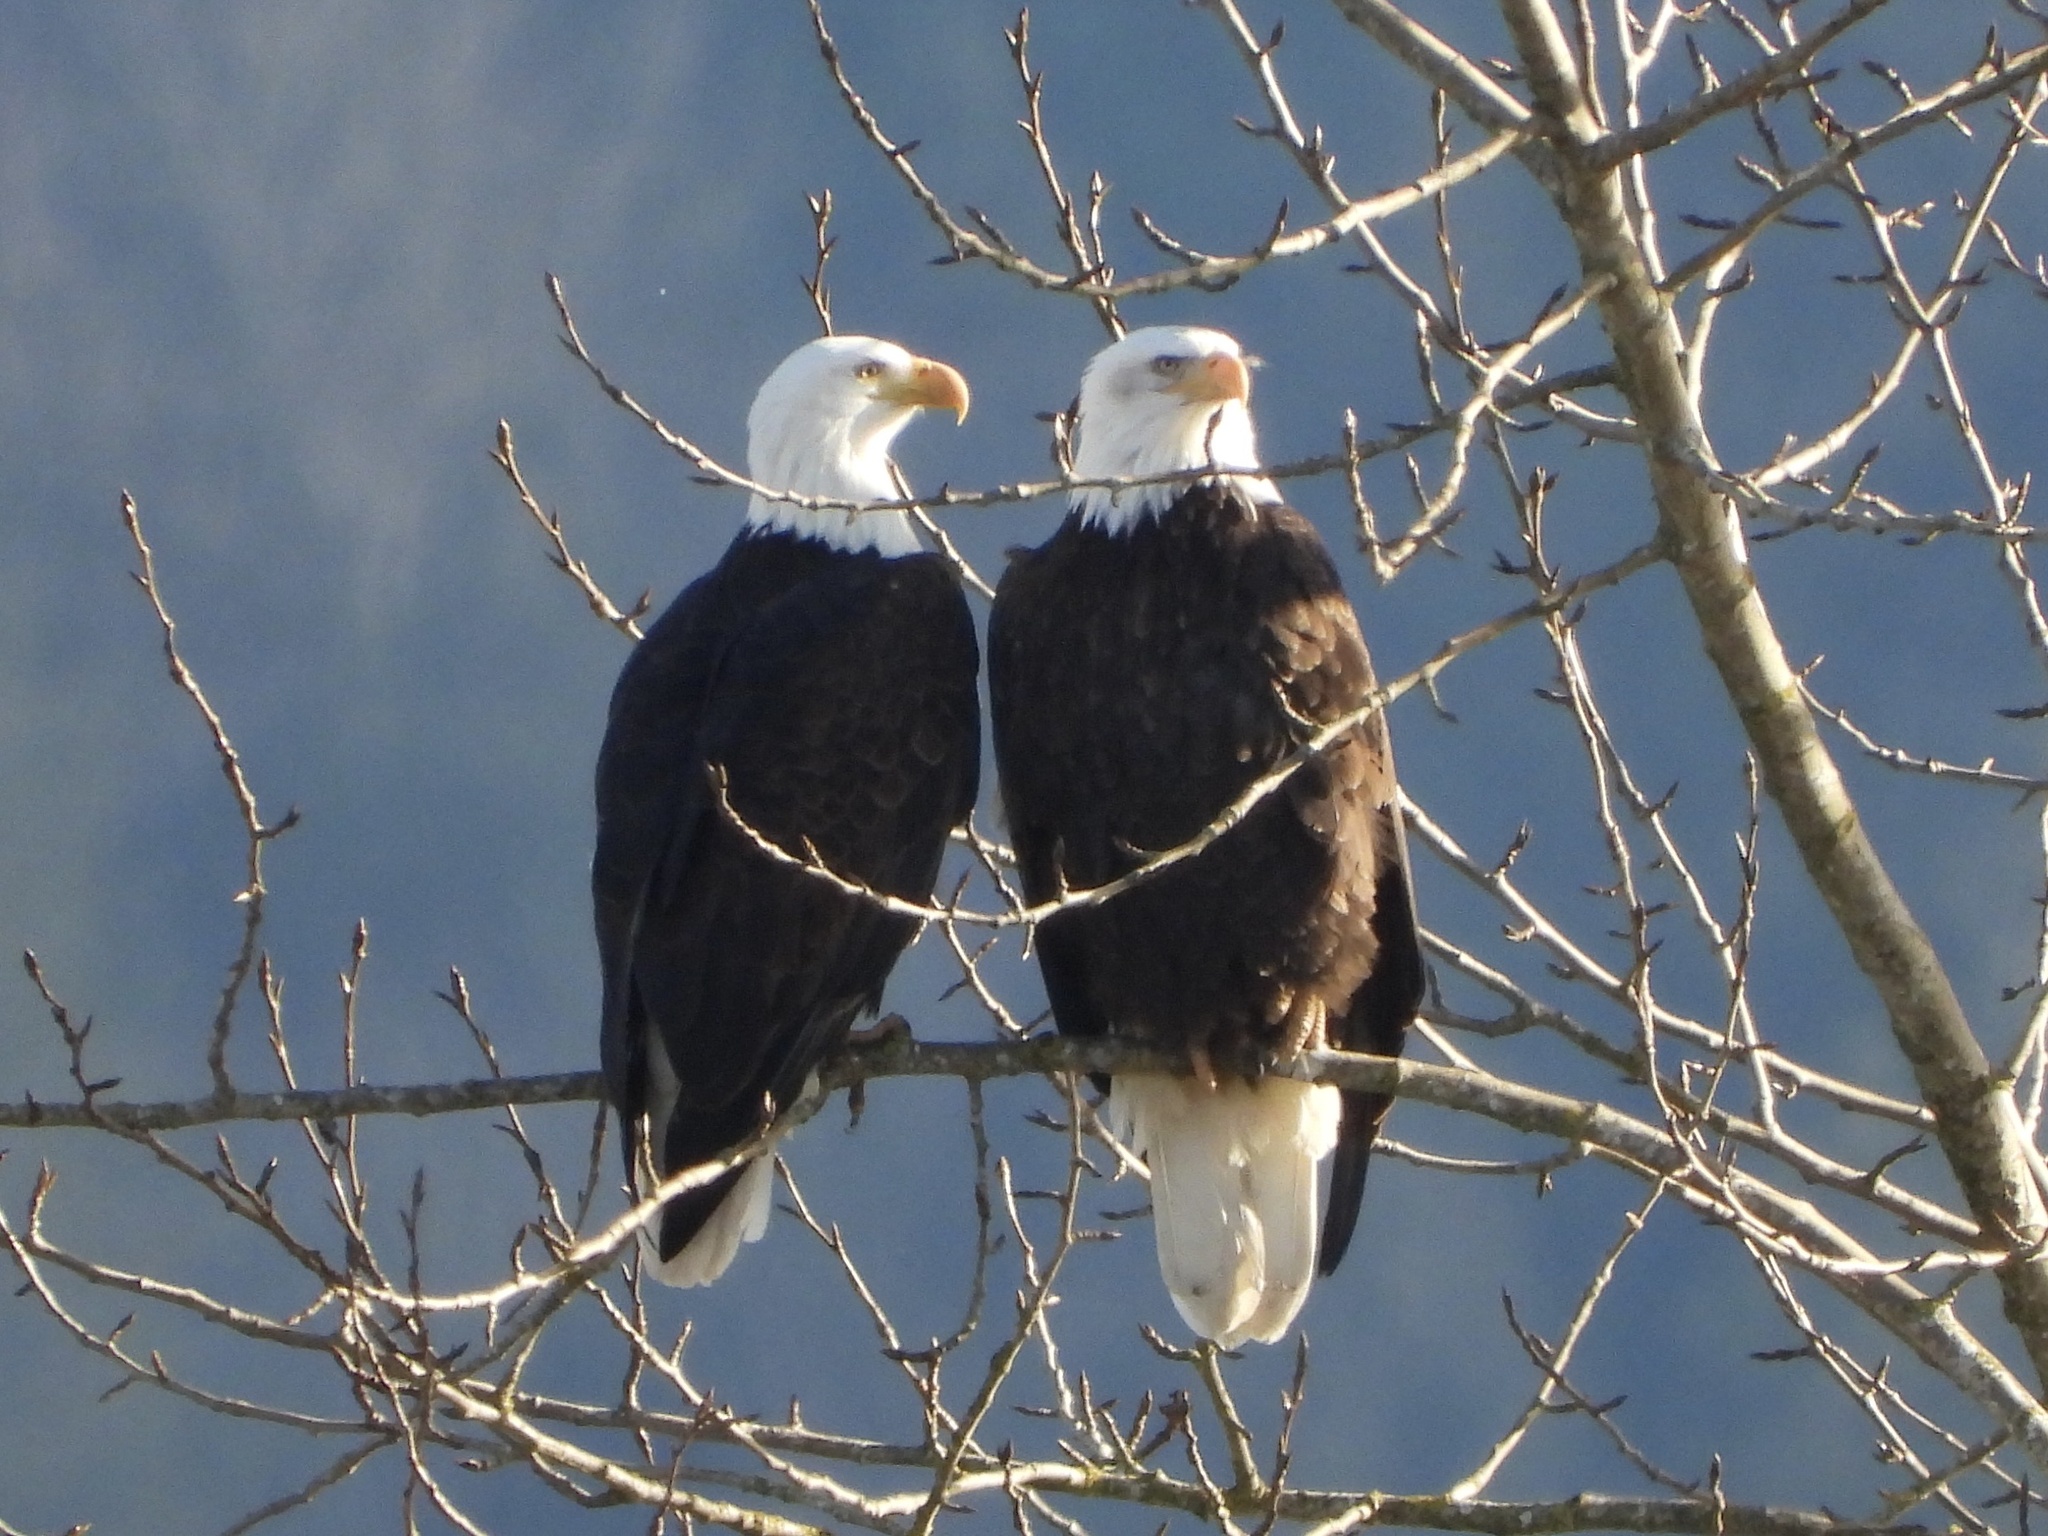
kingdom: Animalia
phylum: Chordata
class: Aves
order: Accipitriformes
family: Accipitridae
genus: Haliaeetus
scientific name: Haliaeetus leucocephalus
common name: Bald eagle
